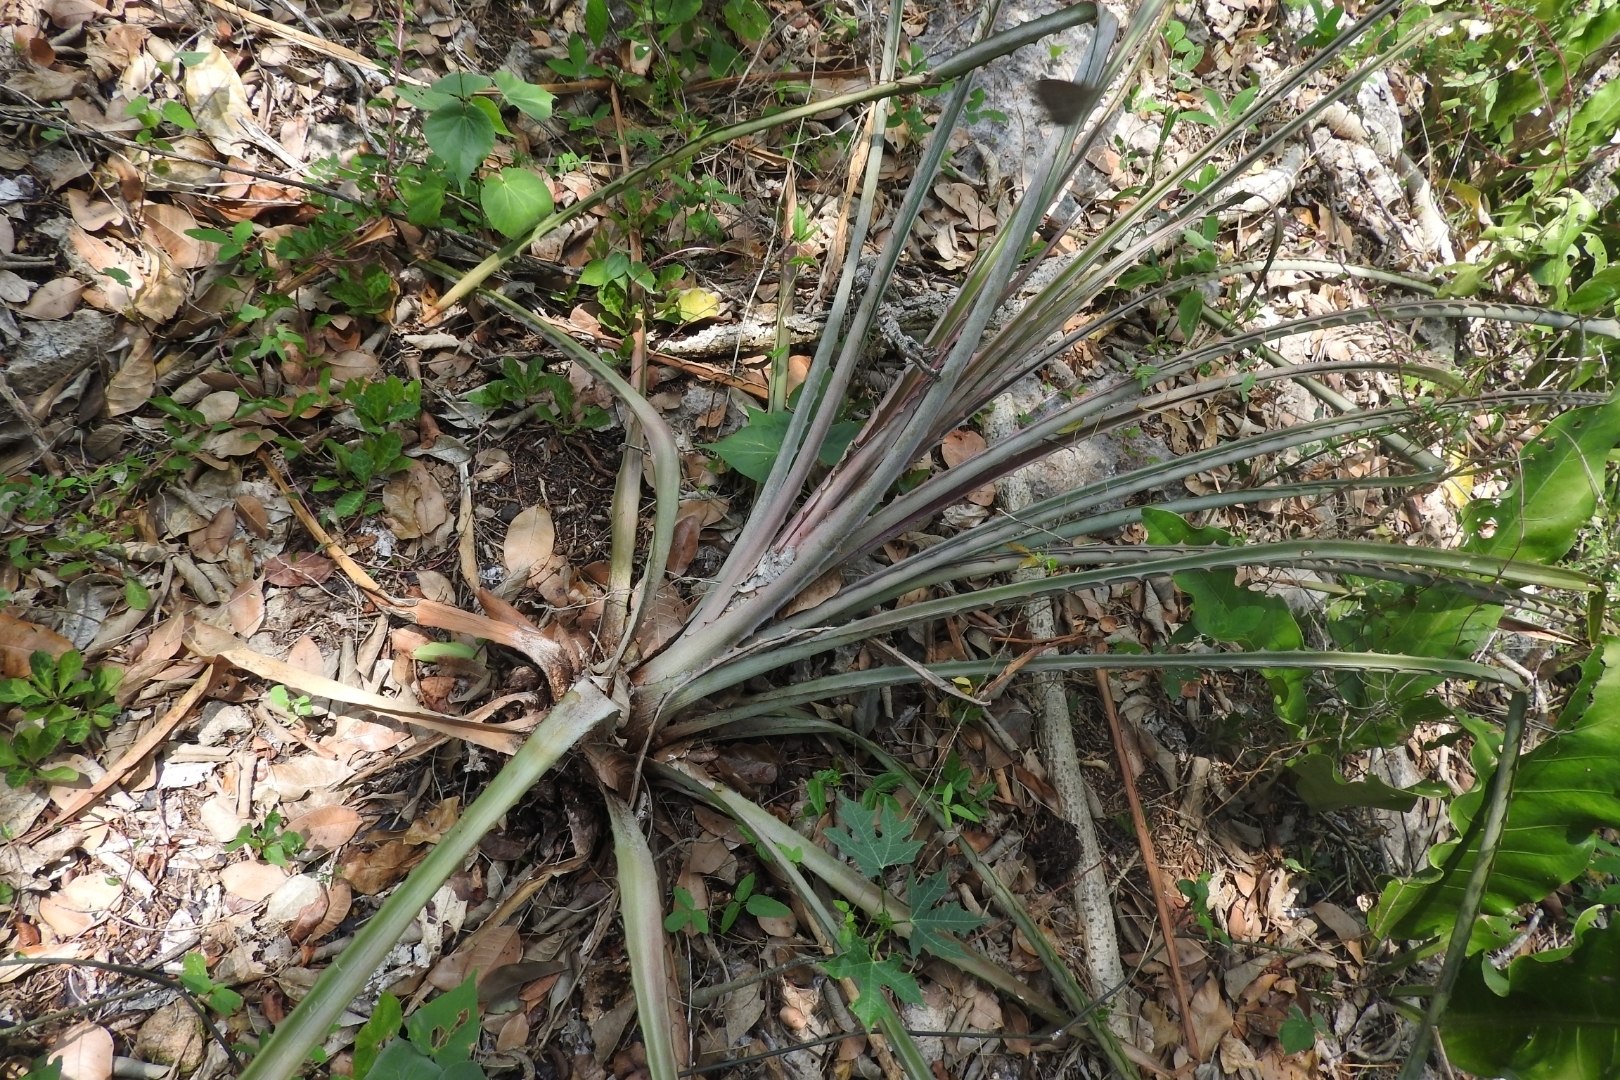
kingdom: Plantae
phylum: Tracheophyta
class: Liliopsida
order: Poales
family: Bromeliaceae
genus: Bromelia
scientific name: Bromelia pinguin
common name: Pinguin
